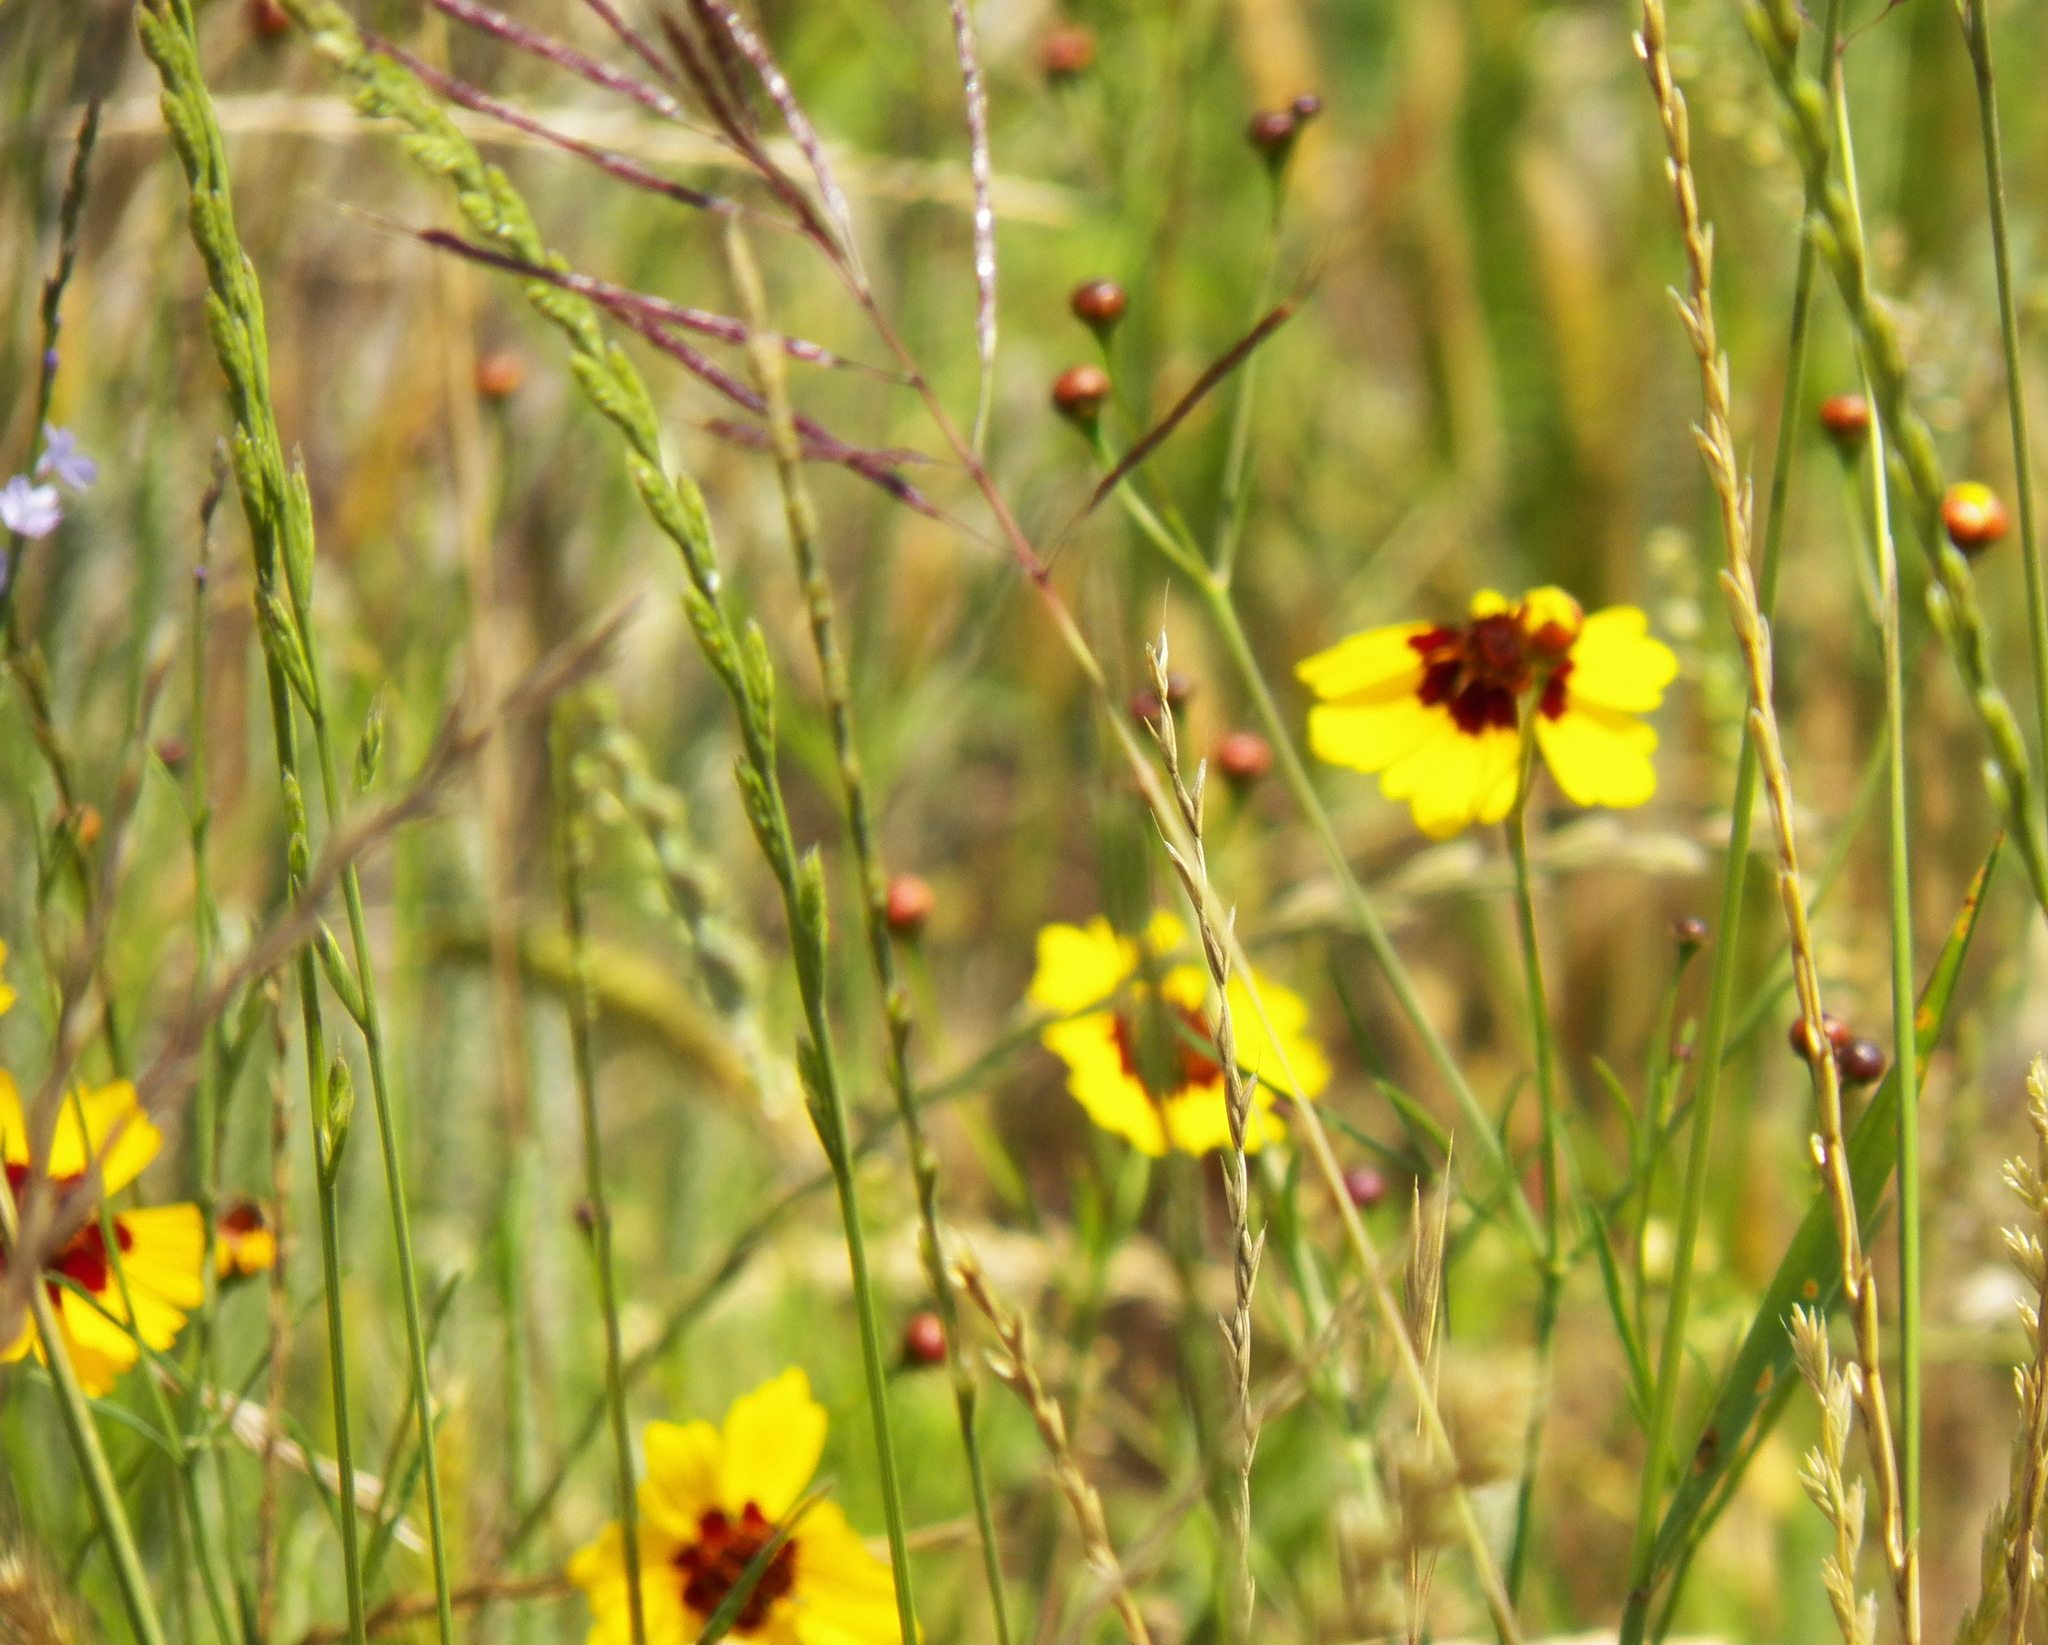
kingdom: Plantae
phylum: Tracheophyta
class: Magnoliopsida
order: Asterales
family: Asteraceae
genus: Coreopsis
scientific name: Coreopsis tinctoria
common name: Garden tickseed
